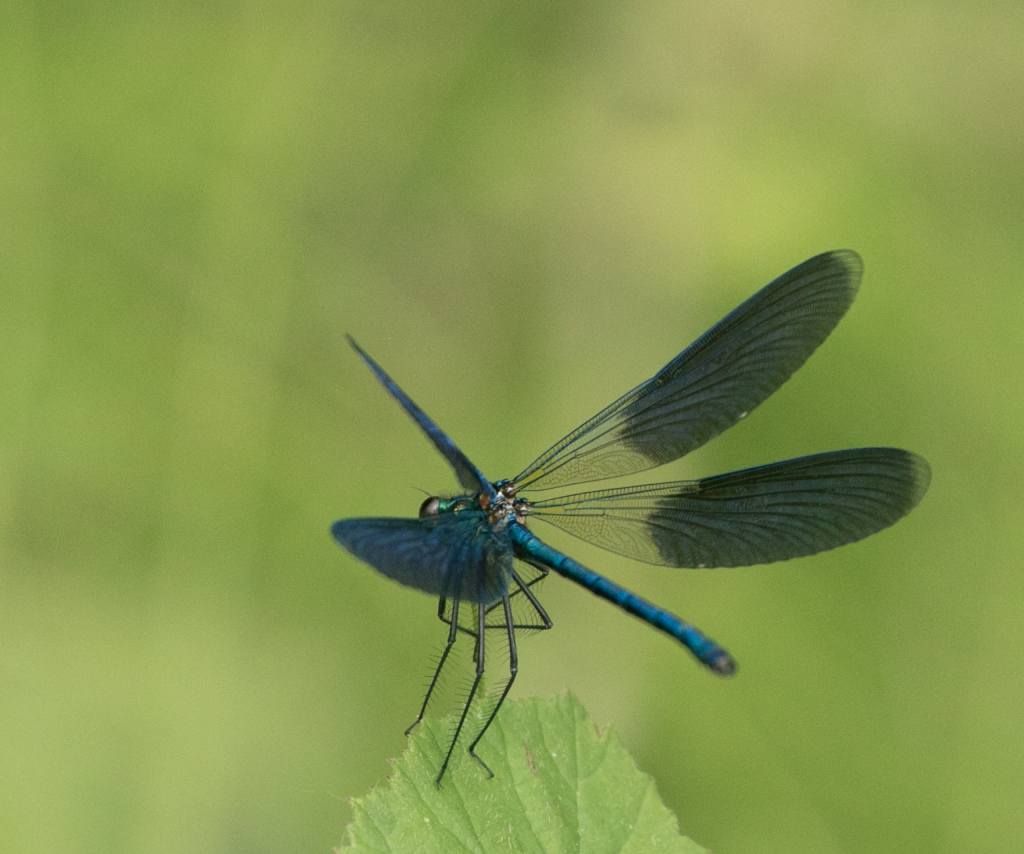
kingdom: Animalia
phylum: Arthropoda
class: Insecta
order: Odonata
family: Calopterygidae
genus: Calopteryx
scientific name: Calopteryx splendens
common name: Banded demoiselle
